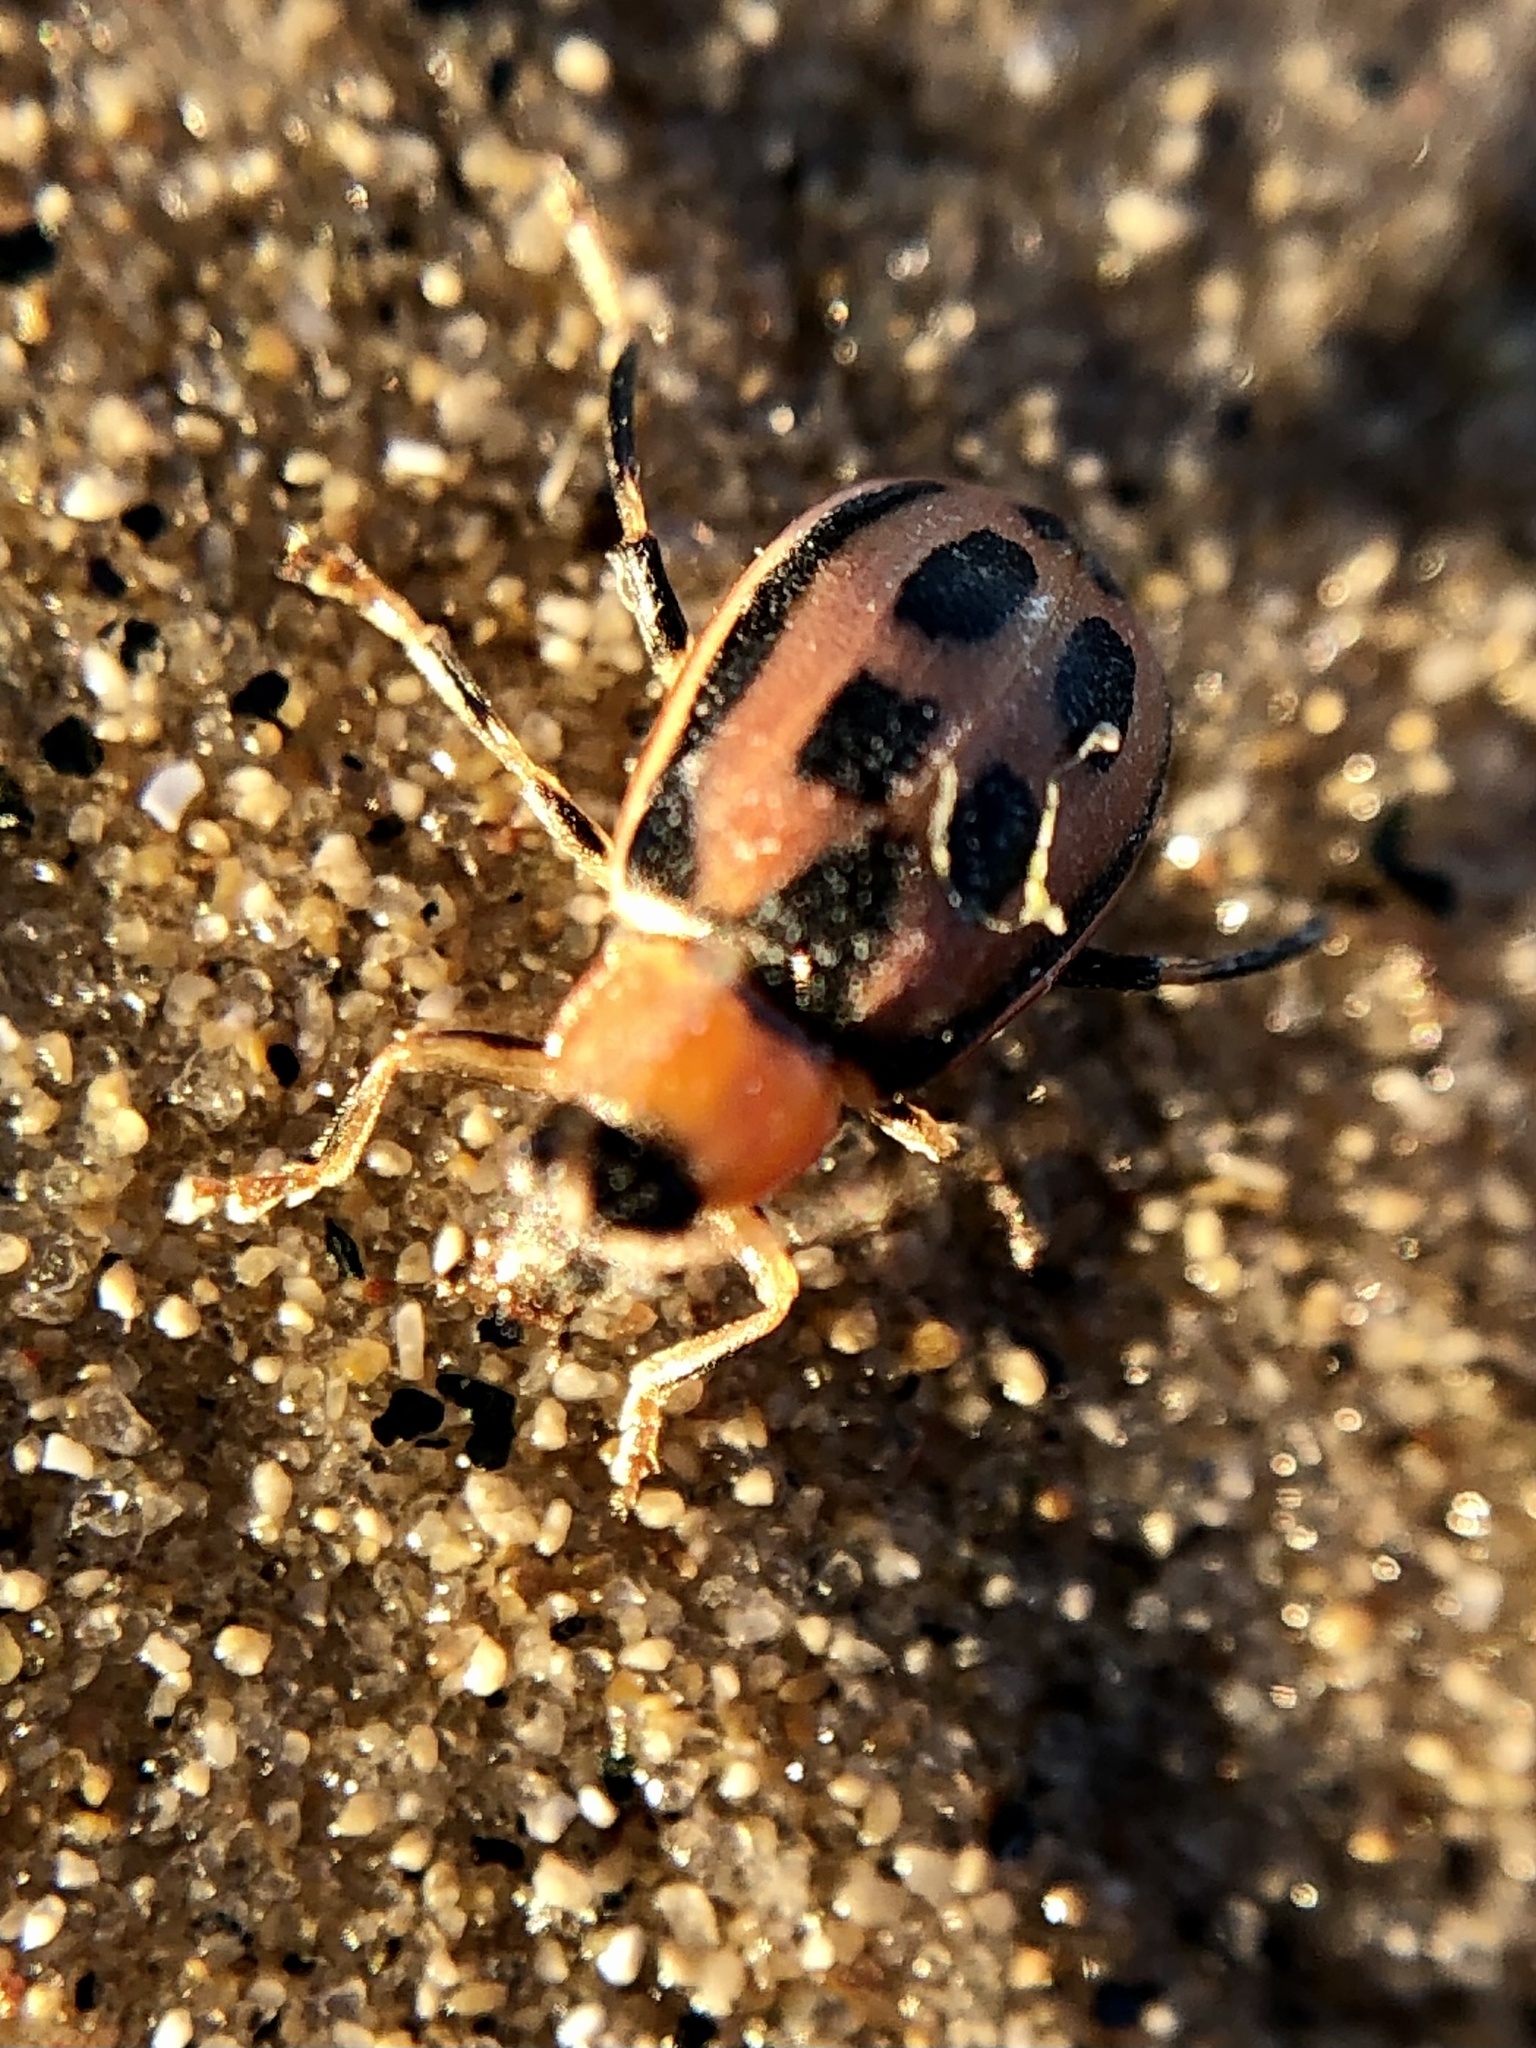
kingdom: Animalia
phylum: Arthropoda
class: Insecta
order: Coleoptera
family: Chrysomelidae
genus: Cerotoma
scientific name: Cerotoma trifurcata
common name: Bean leaf beetle
